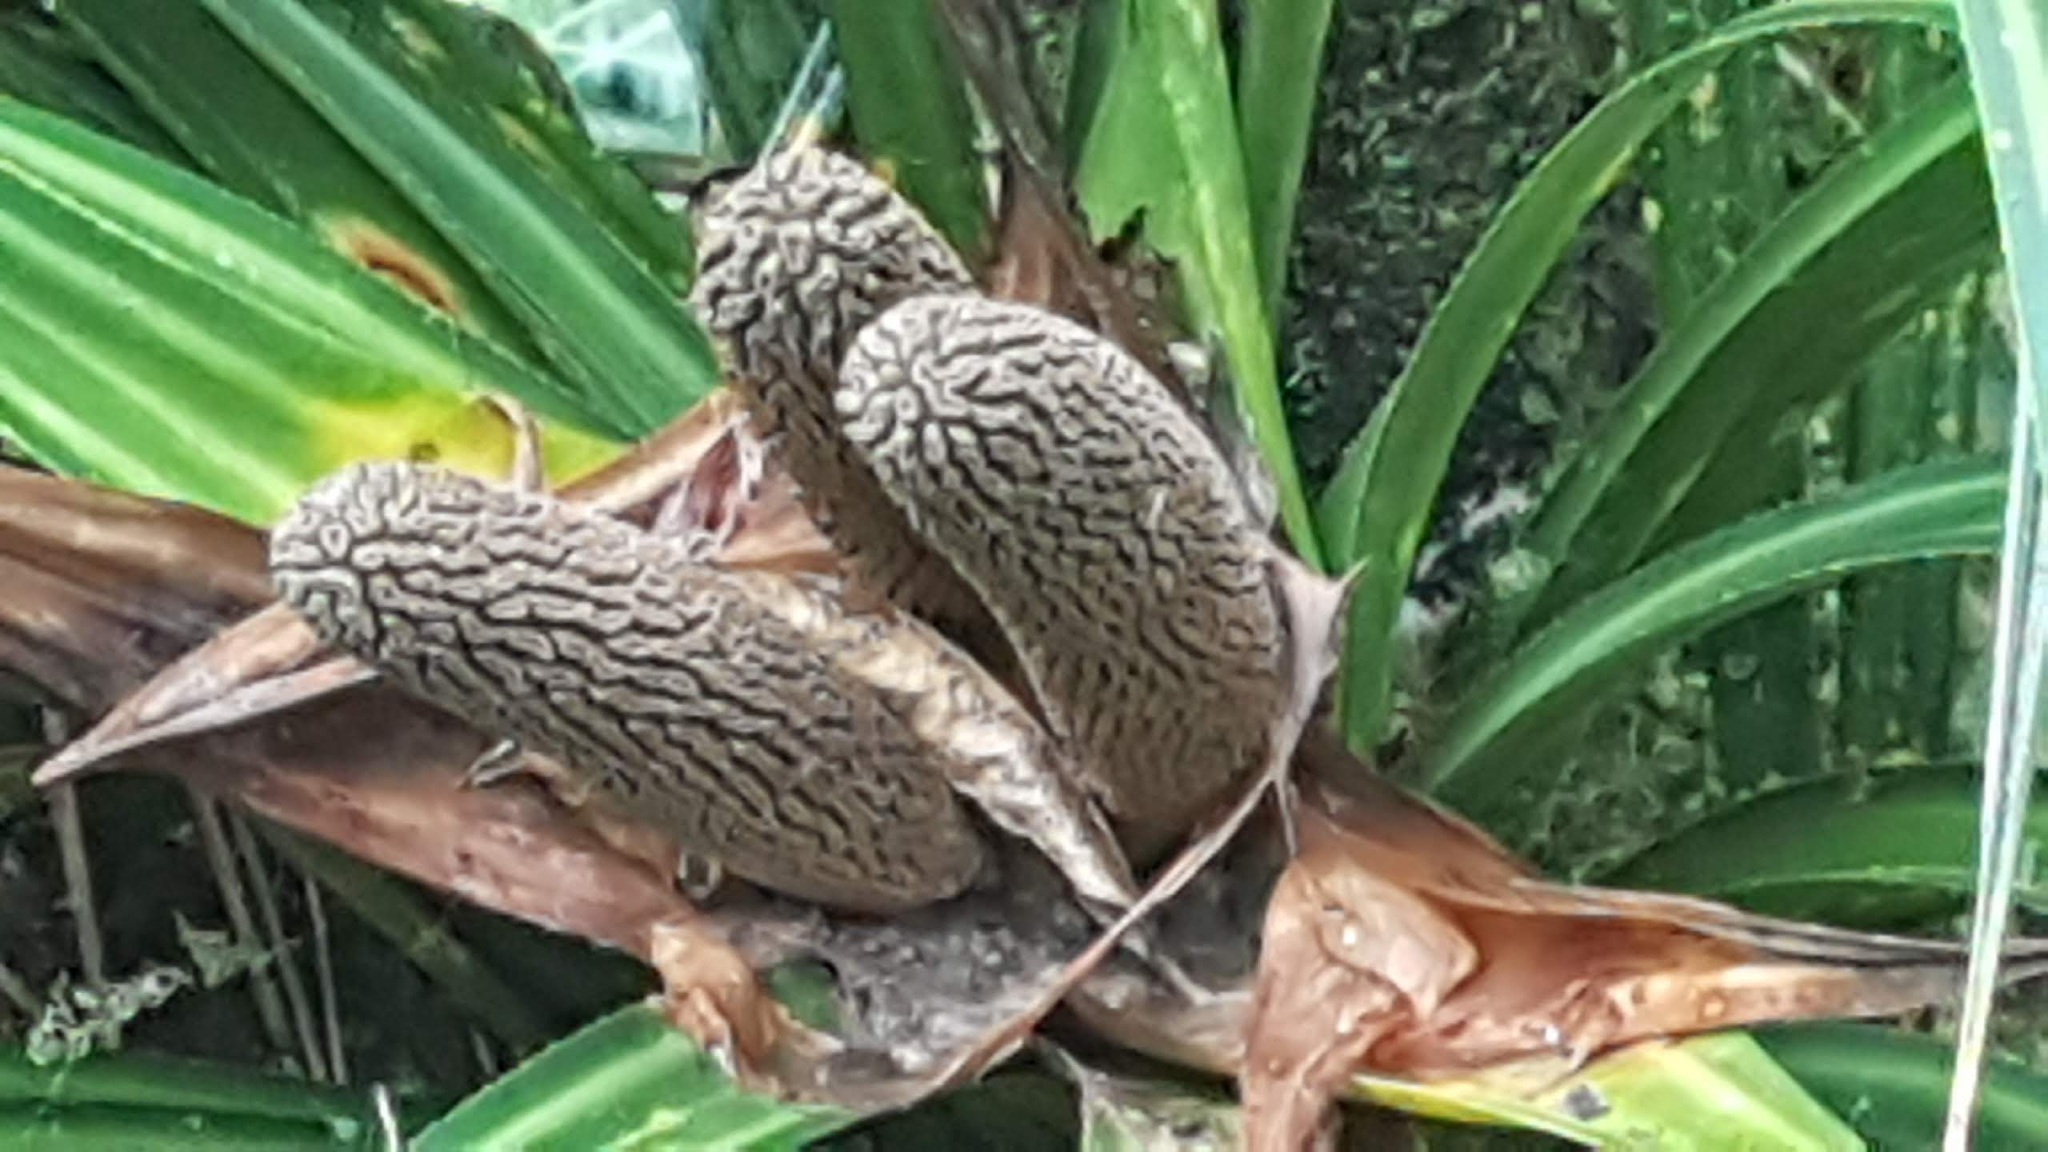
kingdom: Plantae
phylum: Tracheophyta
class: Liliopsida
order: Pandanales
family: Pandanaceae
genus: Freycinetia
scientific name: Freycinetia banksii
